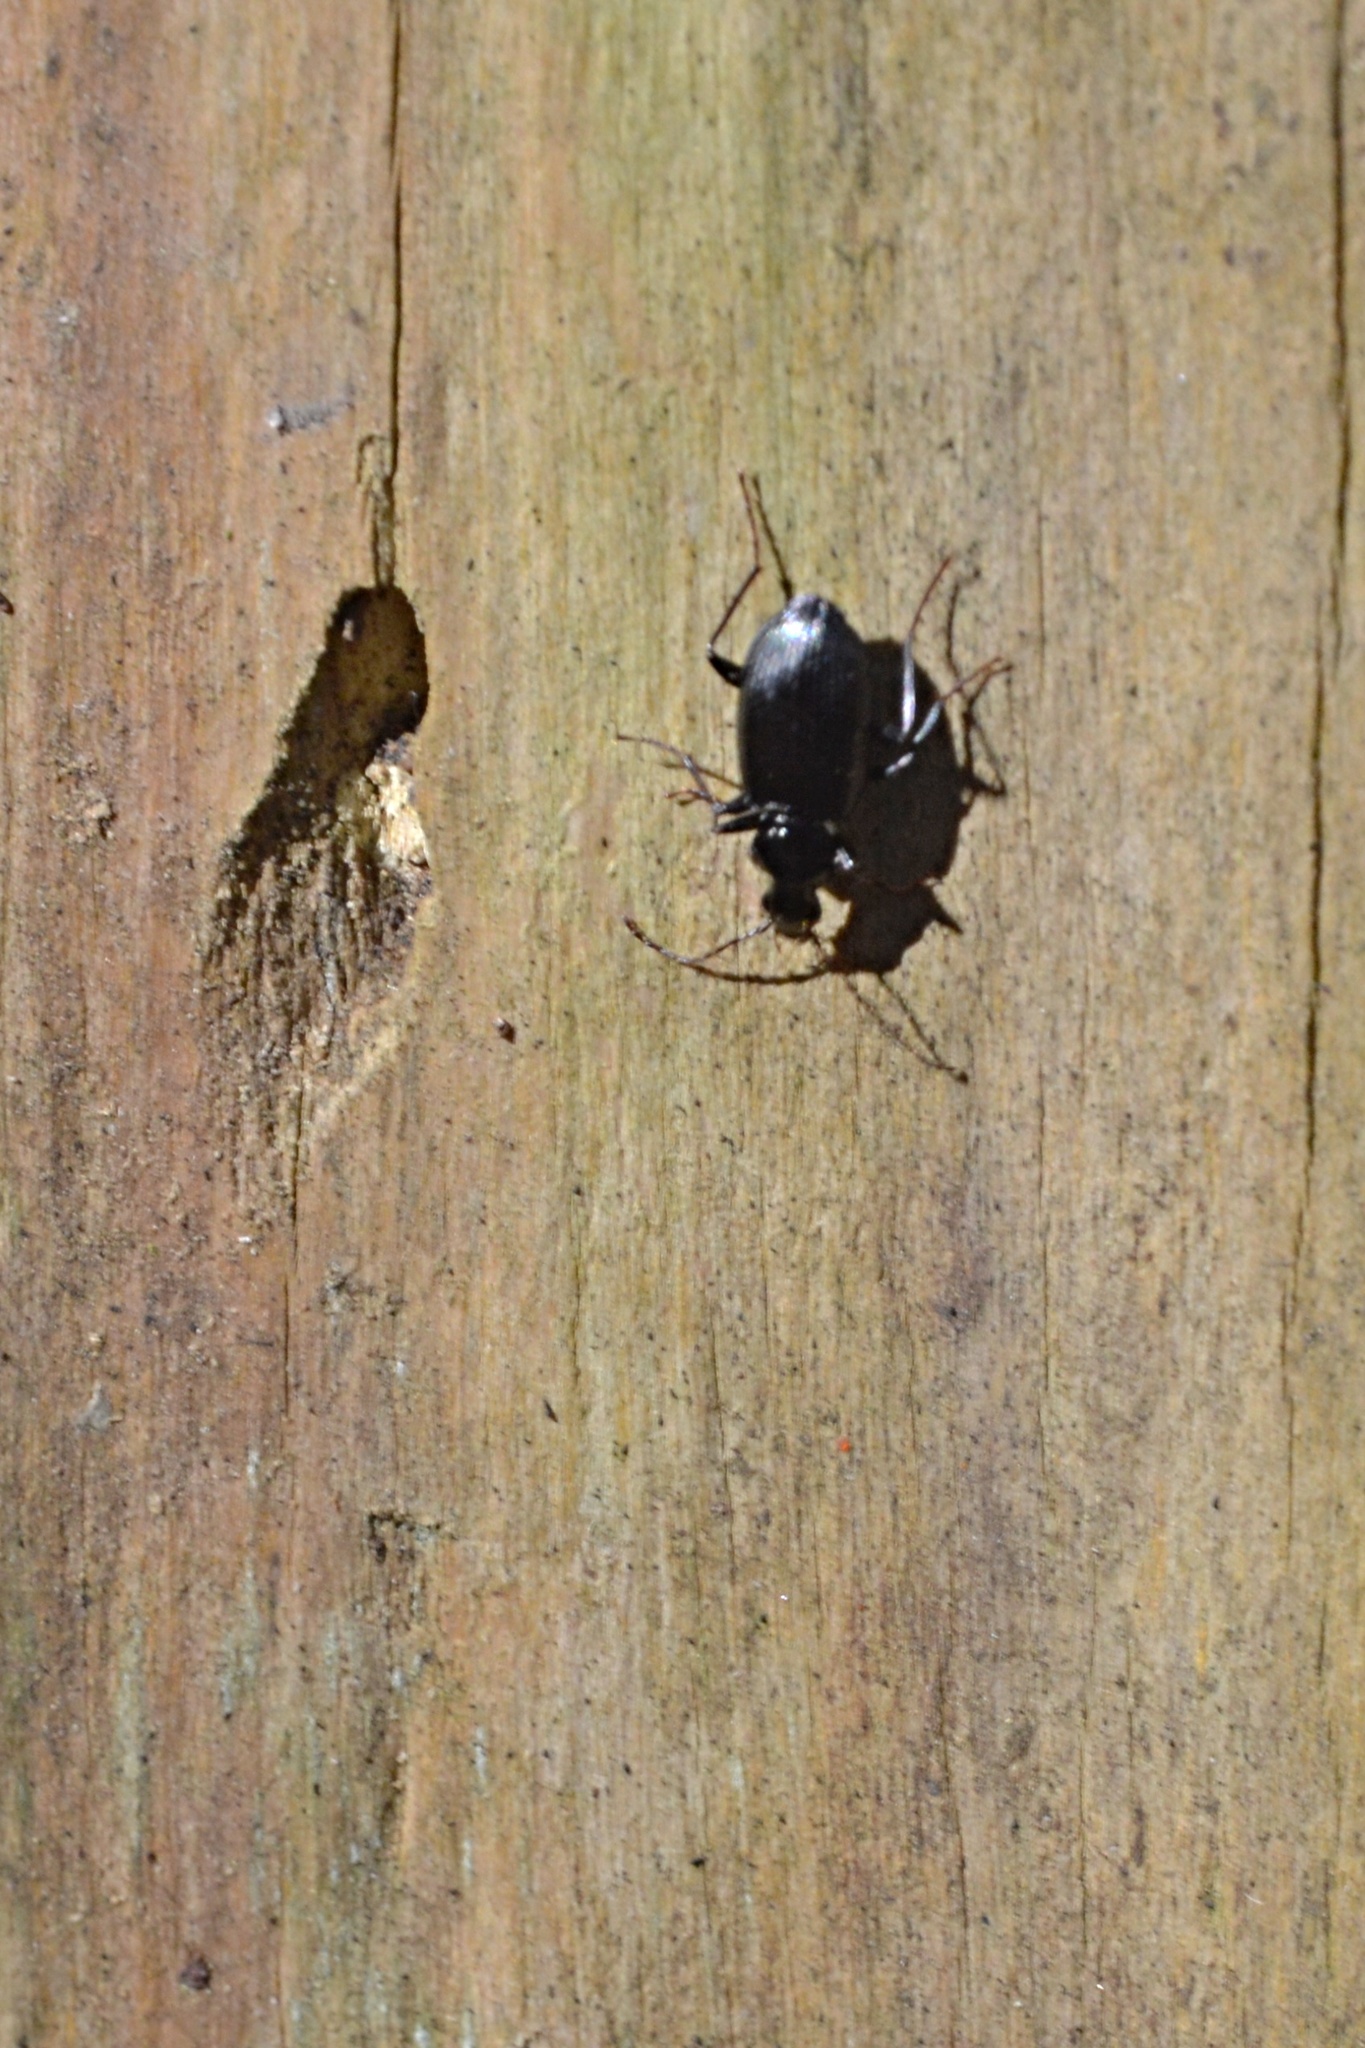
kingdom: Animalia
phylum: Arthropoda
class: Insecta
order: Coleoptera
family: Carabidae
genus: Platynus
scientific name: Platynus assimilis
